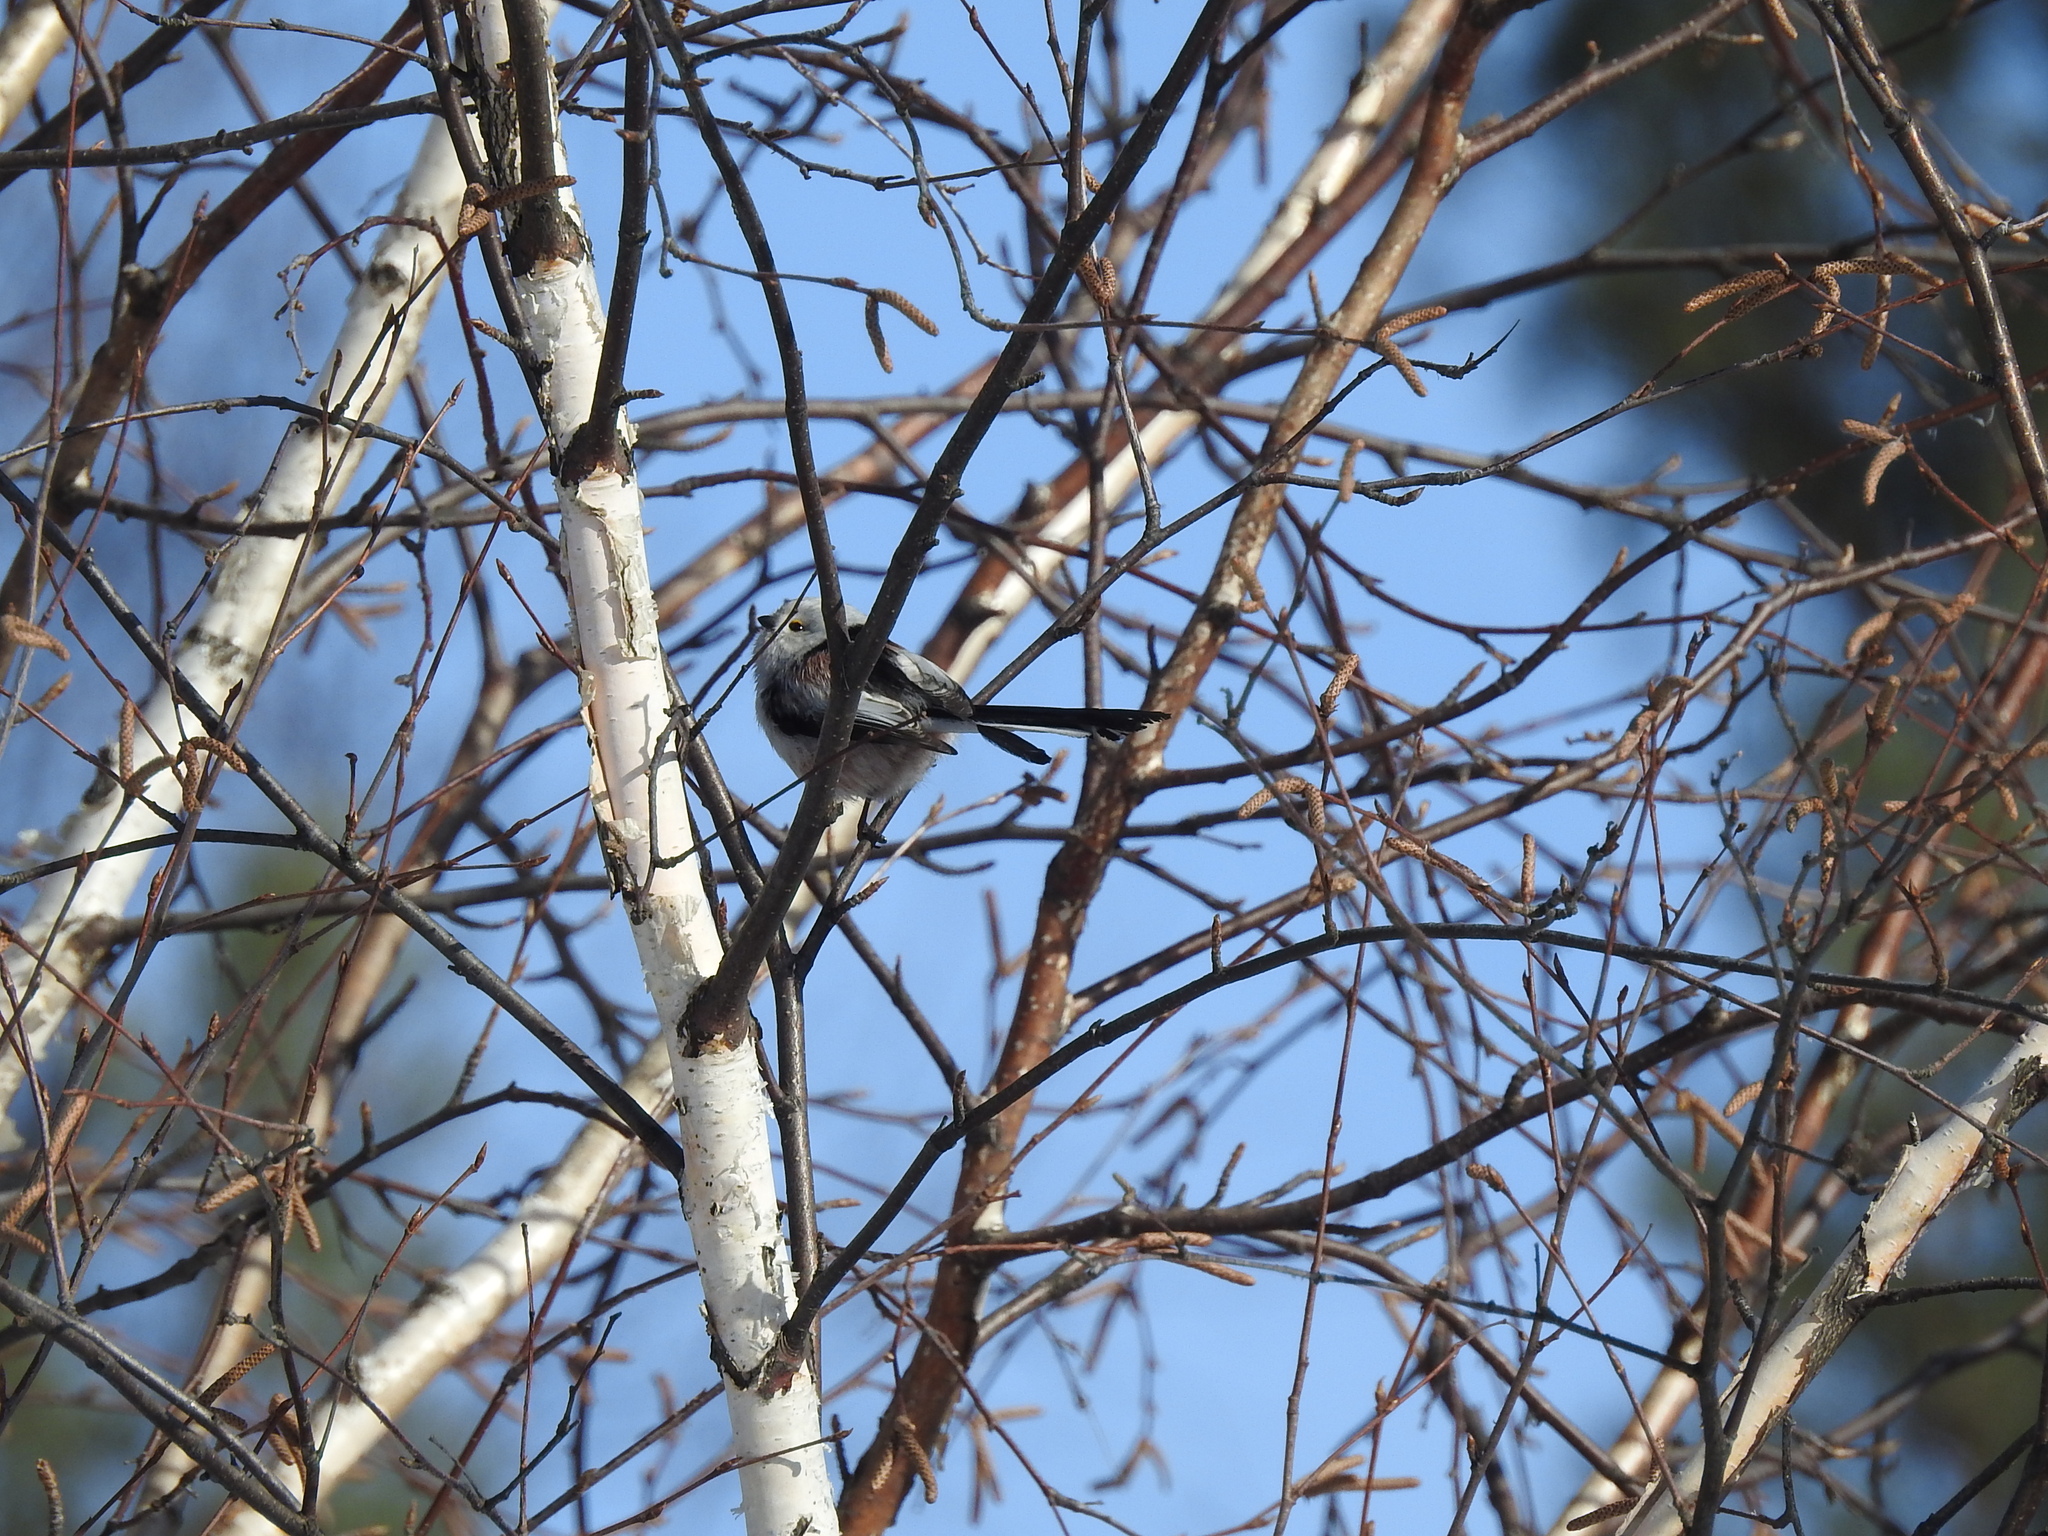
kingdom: Animalia
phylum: Chordata
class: Aves
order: Passeriformes
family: Aegithalidae
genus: Aegithalos
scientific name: Aegithalos caudatus
